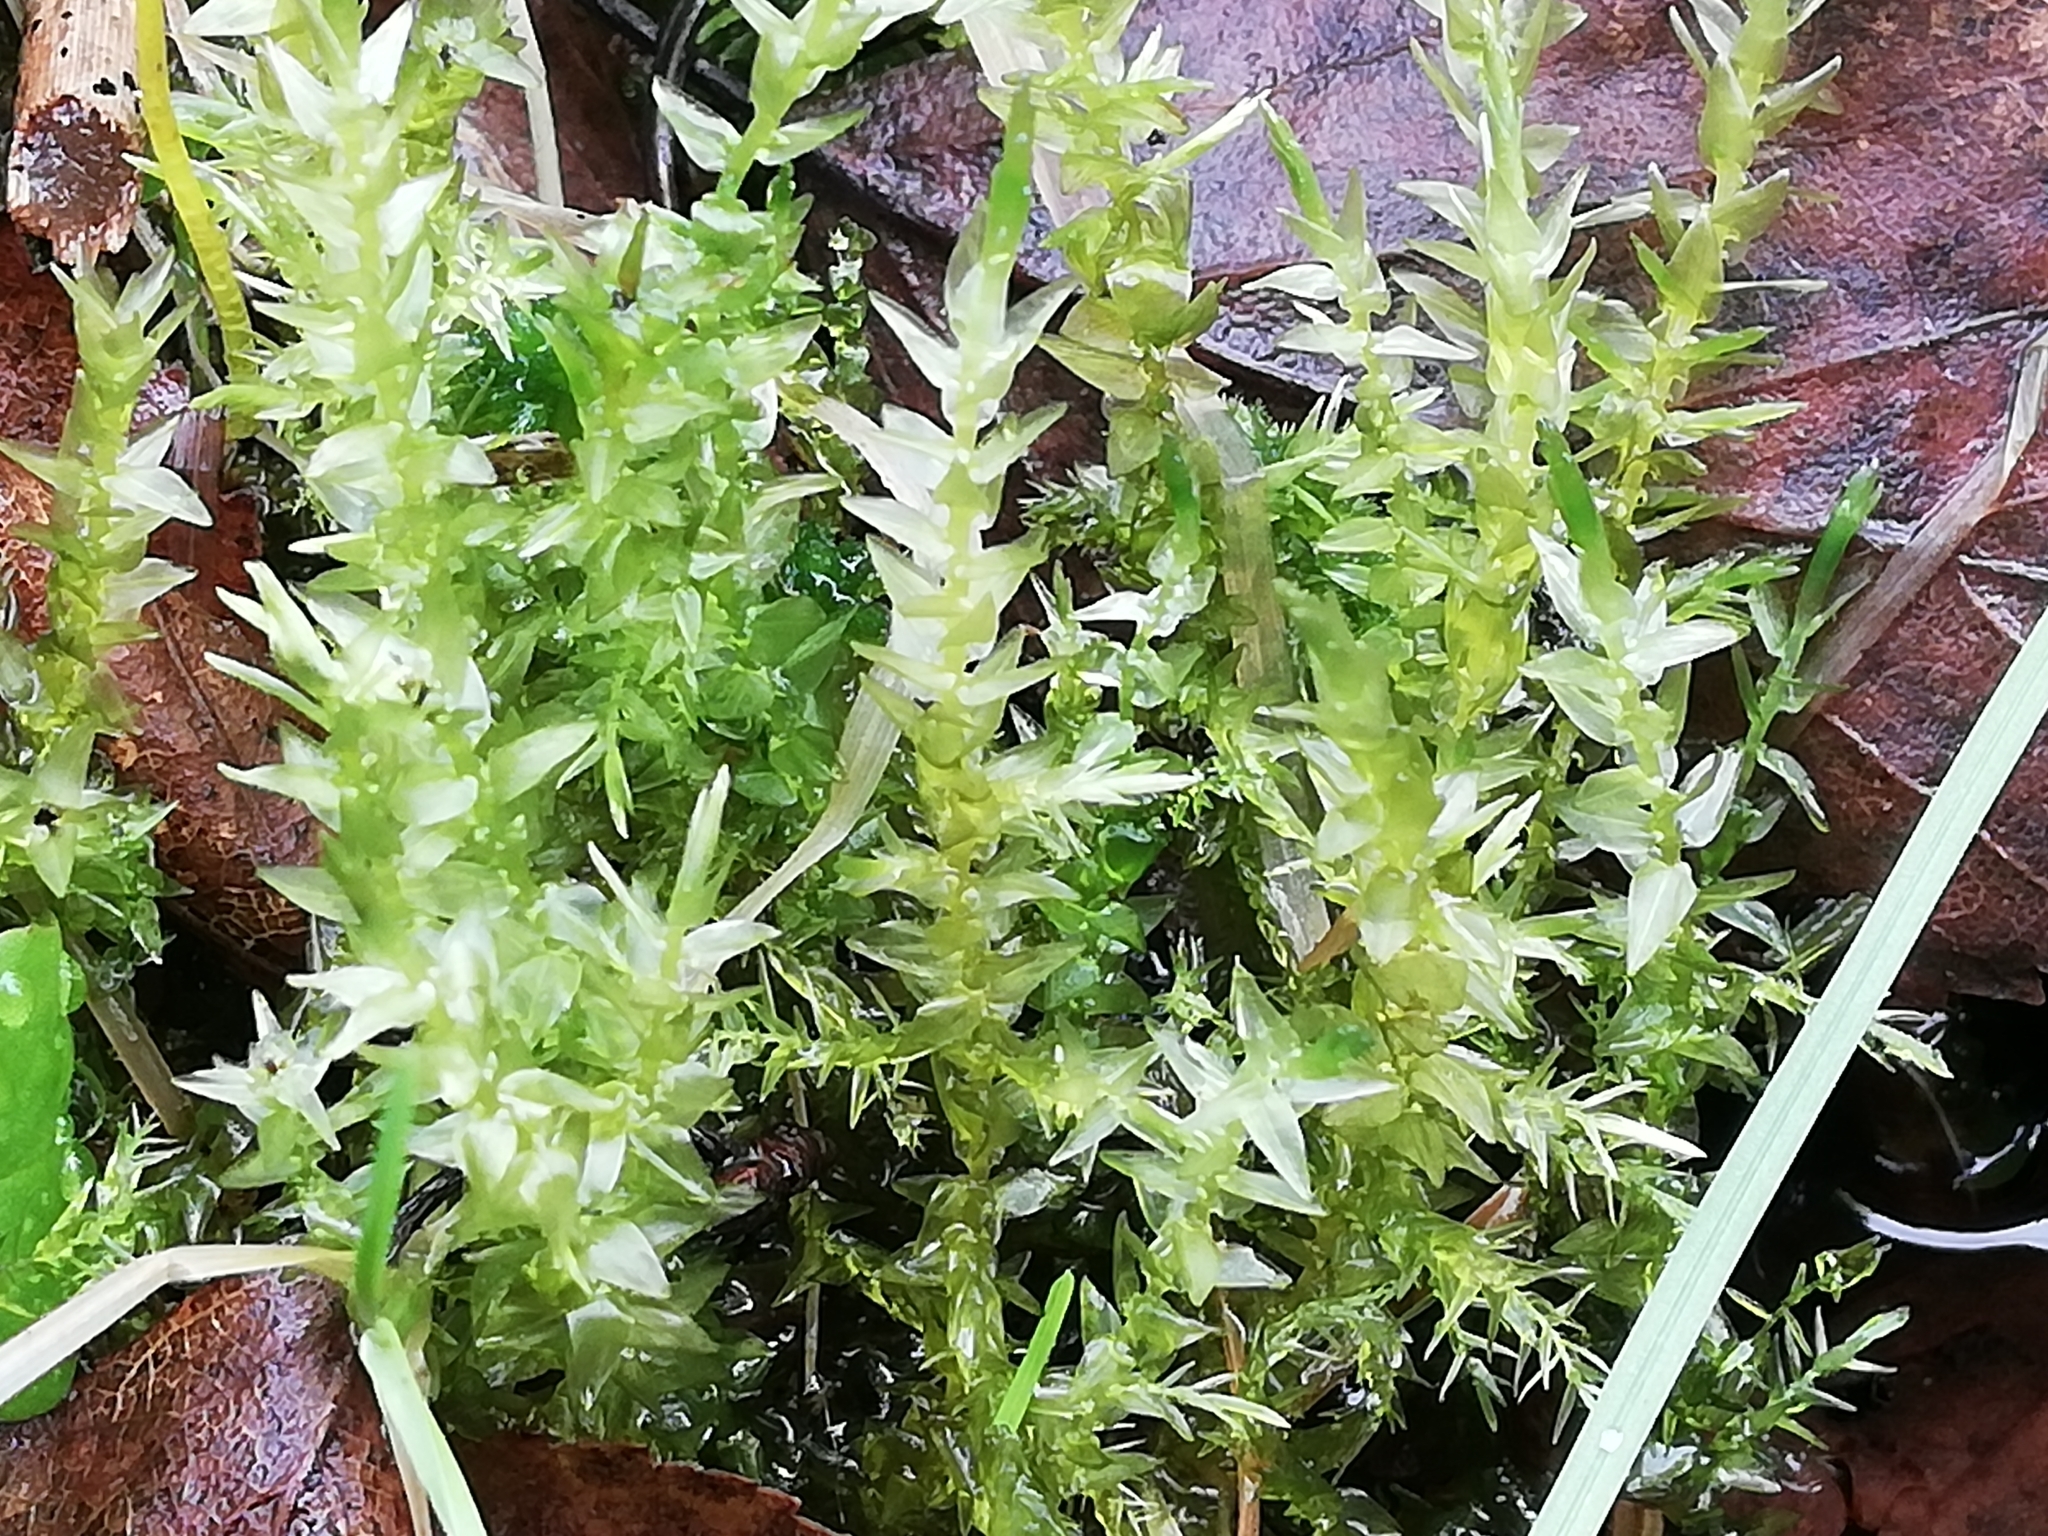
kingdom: Plantae
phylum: Bryophyta
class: Bryopsida
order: Hypnales
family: Calliergonaceae
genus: Calliergon
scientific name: Calliergon giganteum
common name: Giant spear moss
